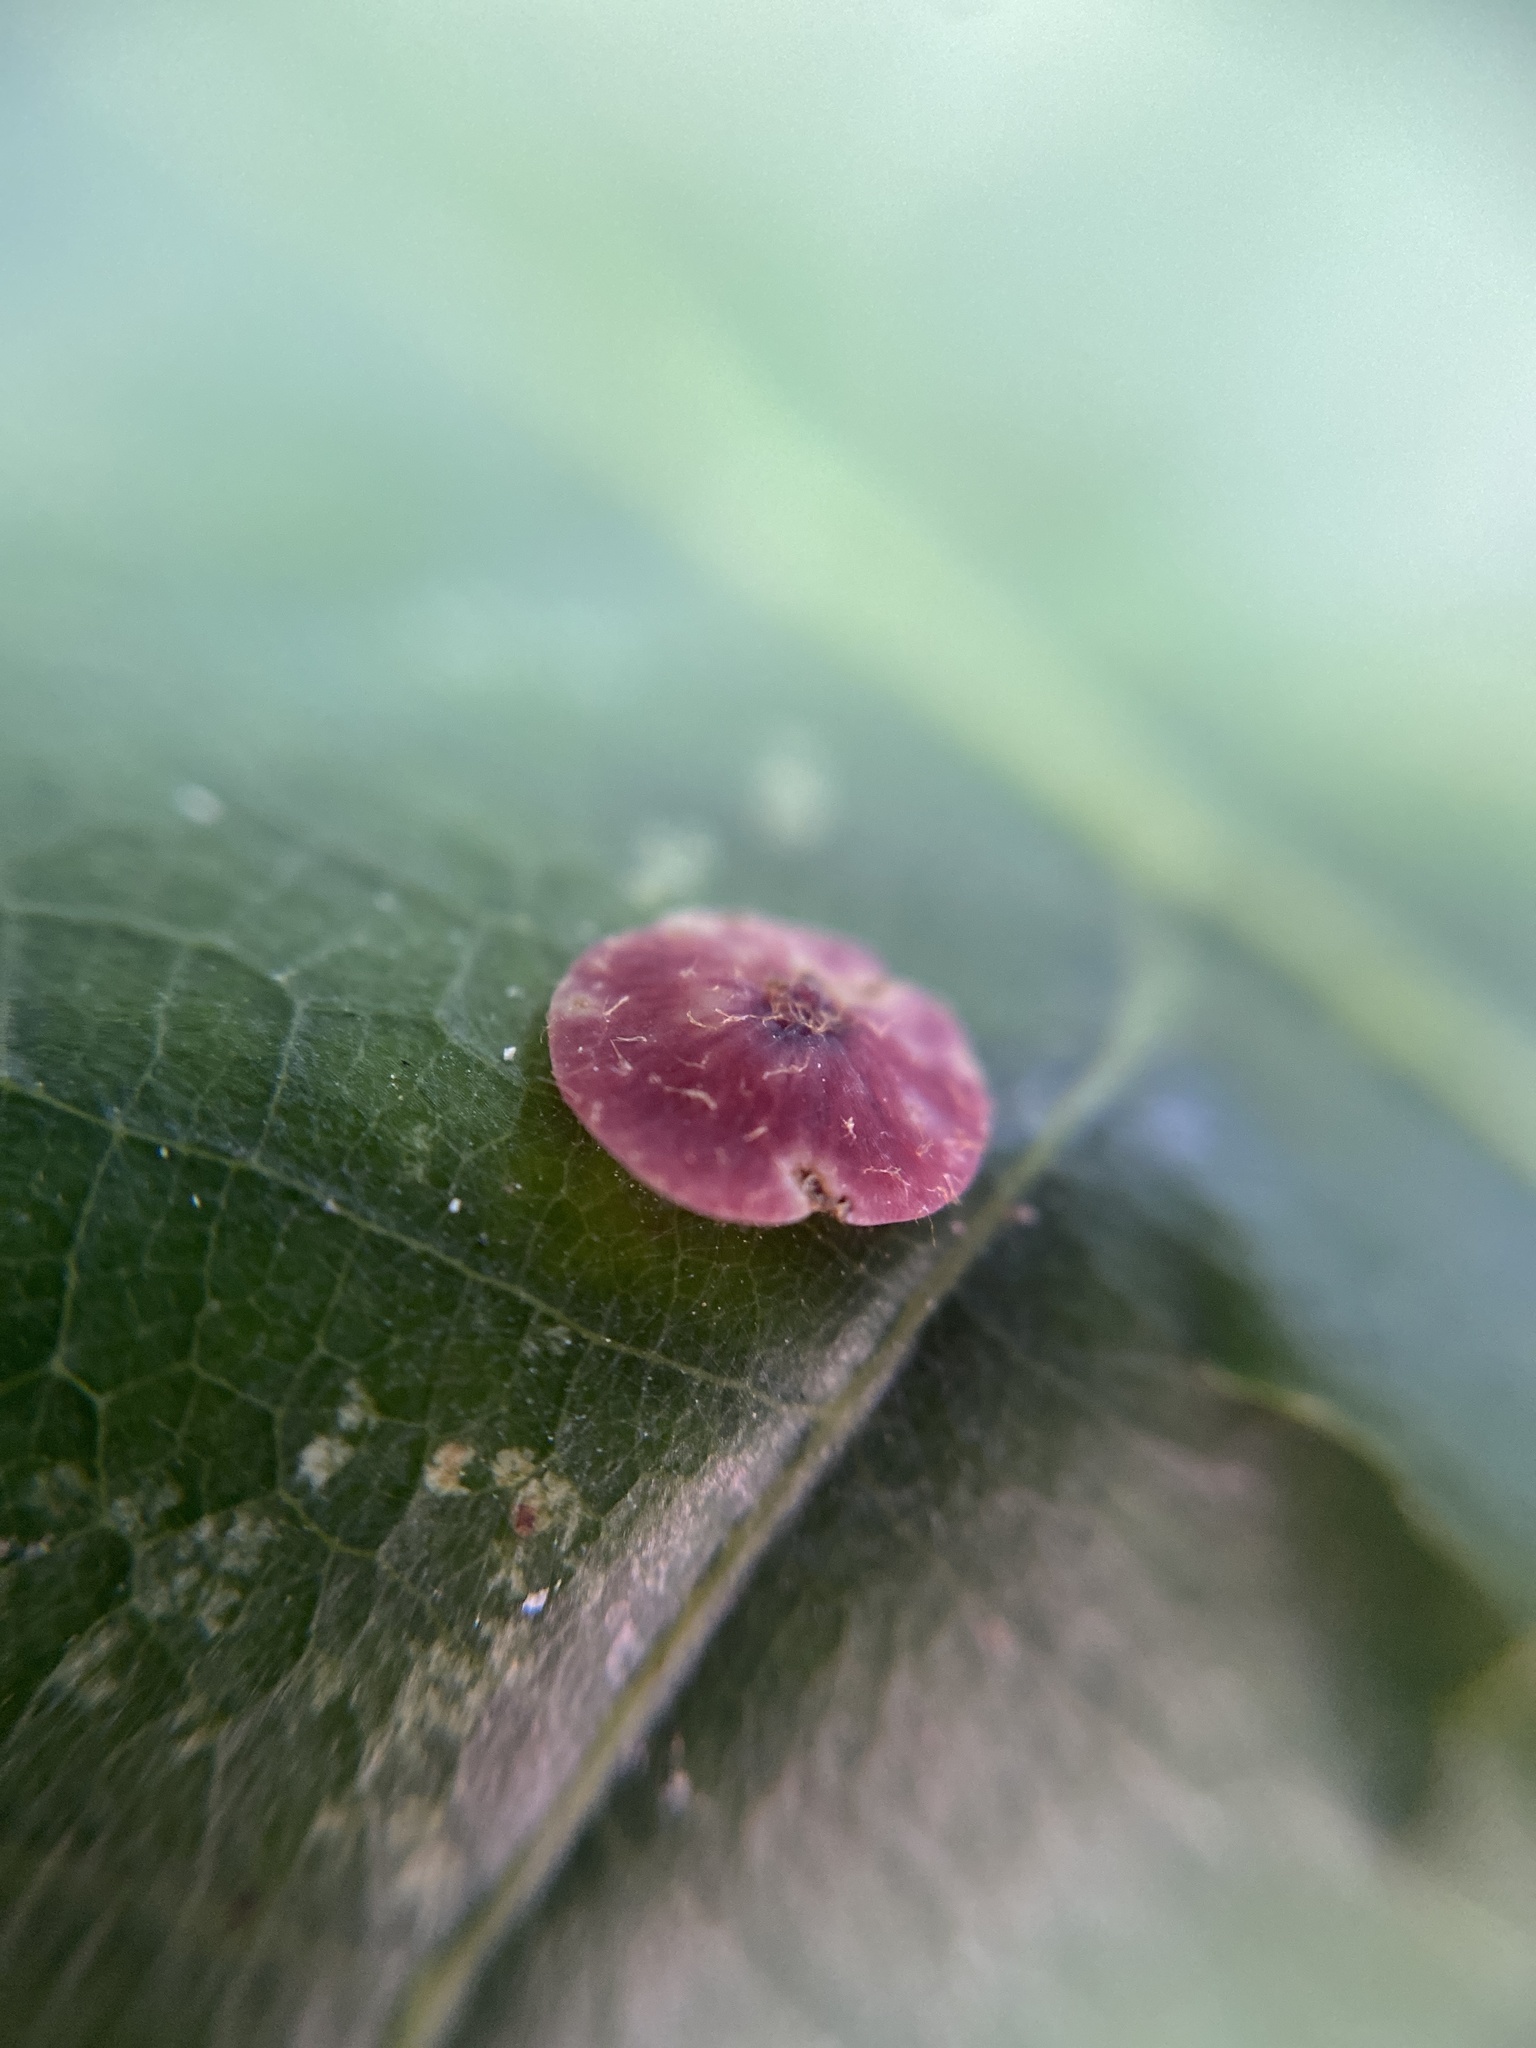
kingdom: Animalia
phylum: Arthropoda
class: Insecta
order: Hymenoptera
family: Cynipidae
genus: Neuroterus
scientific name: Neuroterus albipes
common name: Smooth spangle gall
